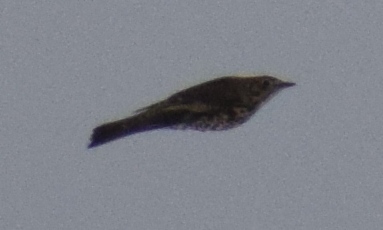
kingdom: Animalia
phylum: Chordata
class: Aves
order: Passeriformes
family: Turdidae
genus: Turdus
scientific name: Turdus viscivorus
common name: Mistle thrush
